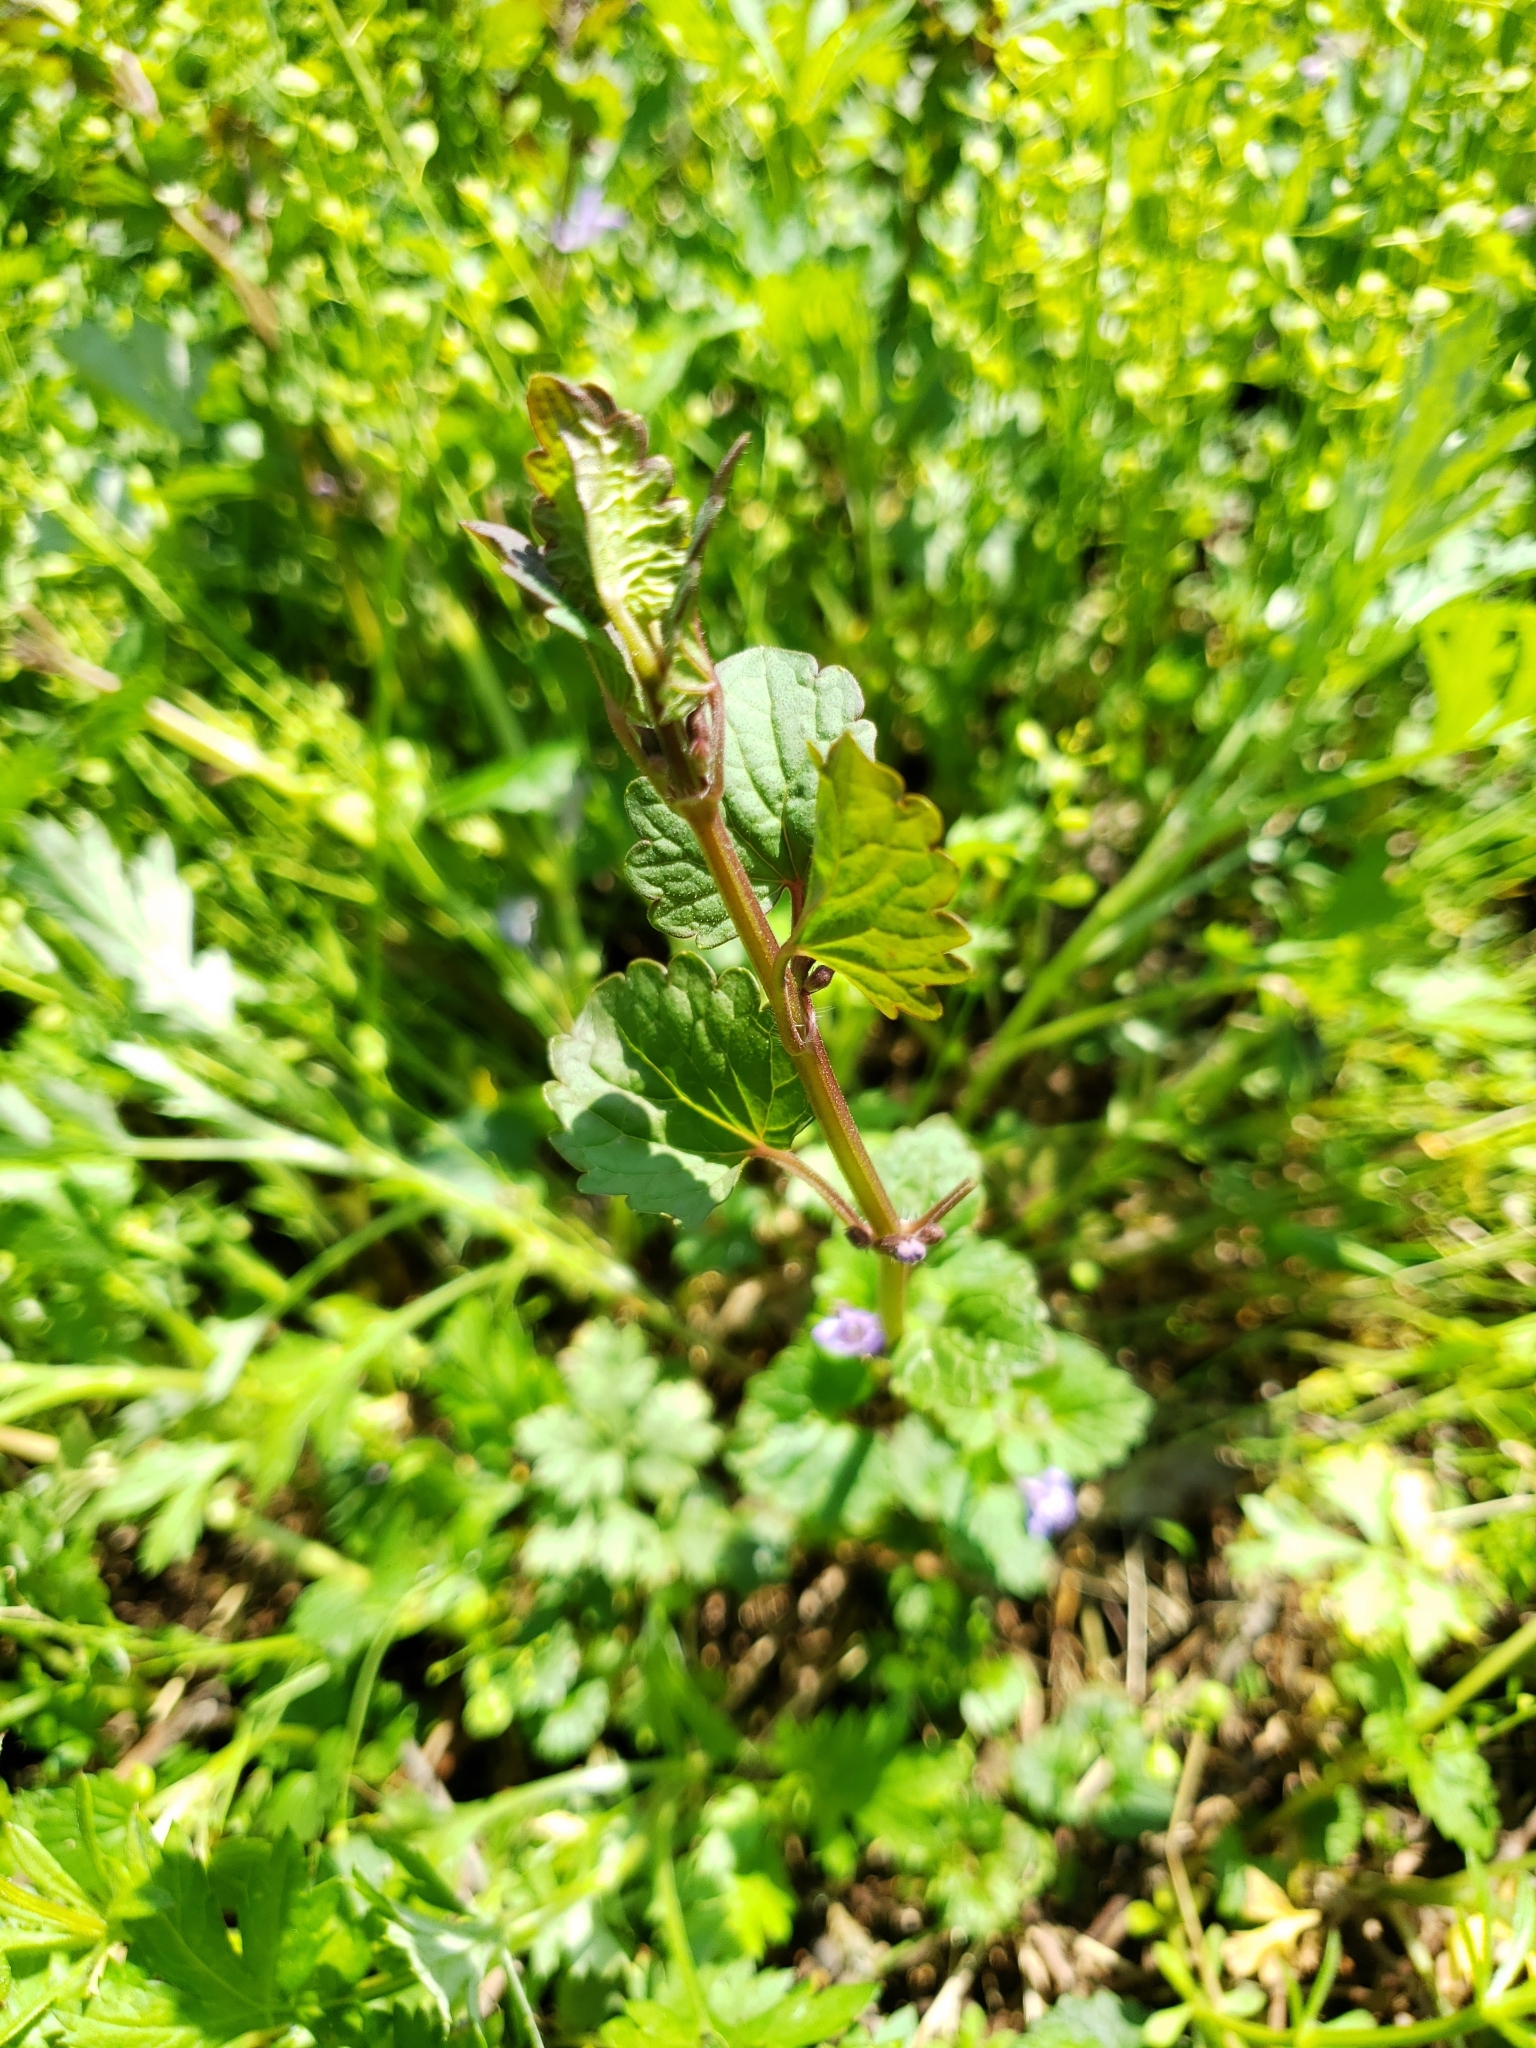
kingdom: Plantae
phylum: Tracheophyta
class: Magnoliopsida
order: Lamiales
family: Lamiaceae
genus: Glechoma
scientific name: Glechoma hederacea
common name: Ground ivy
